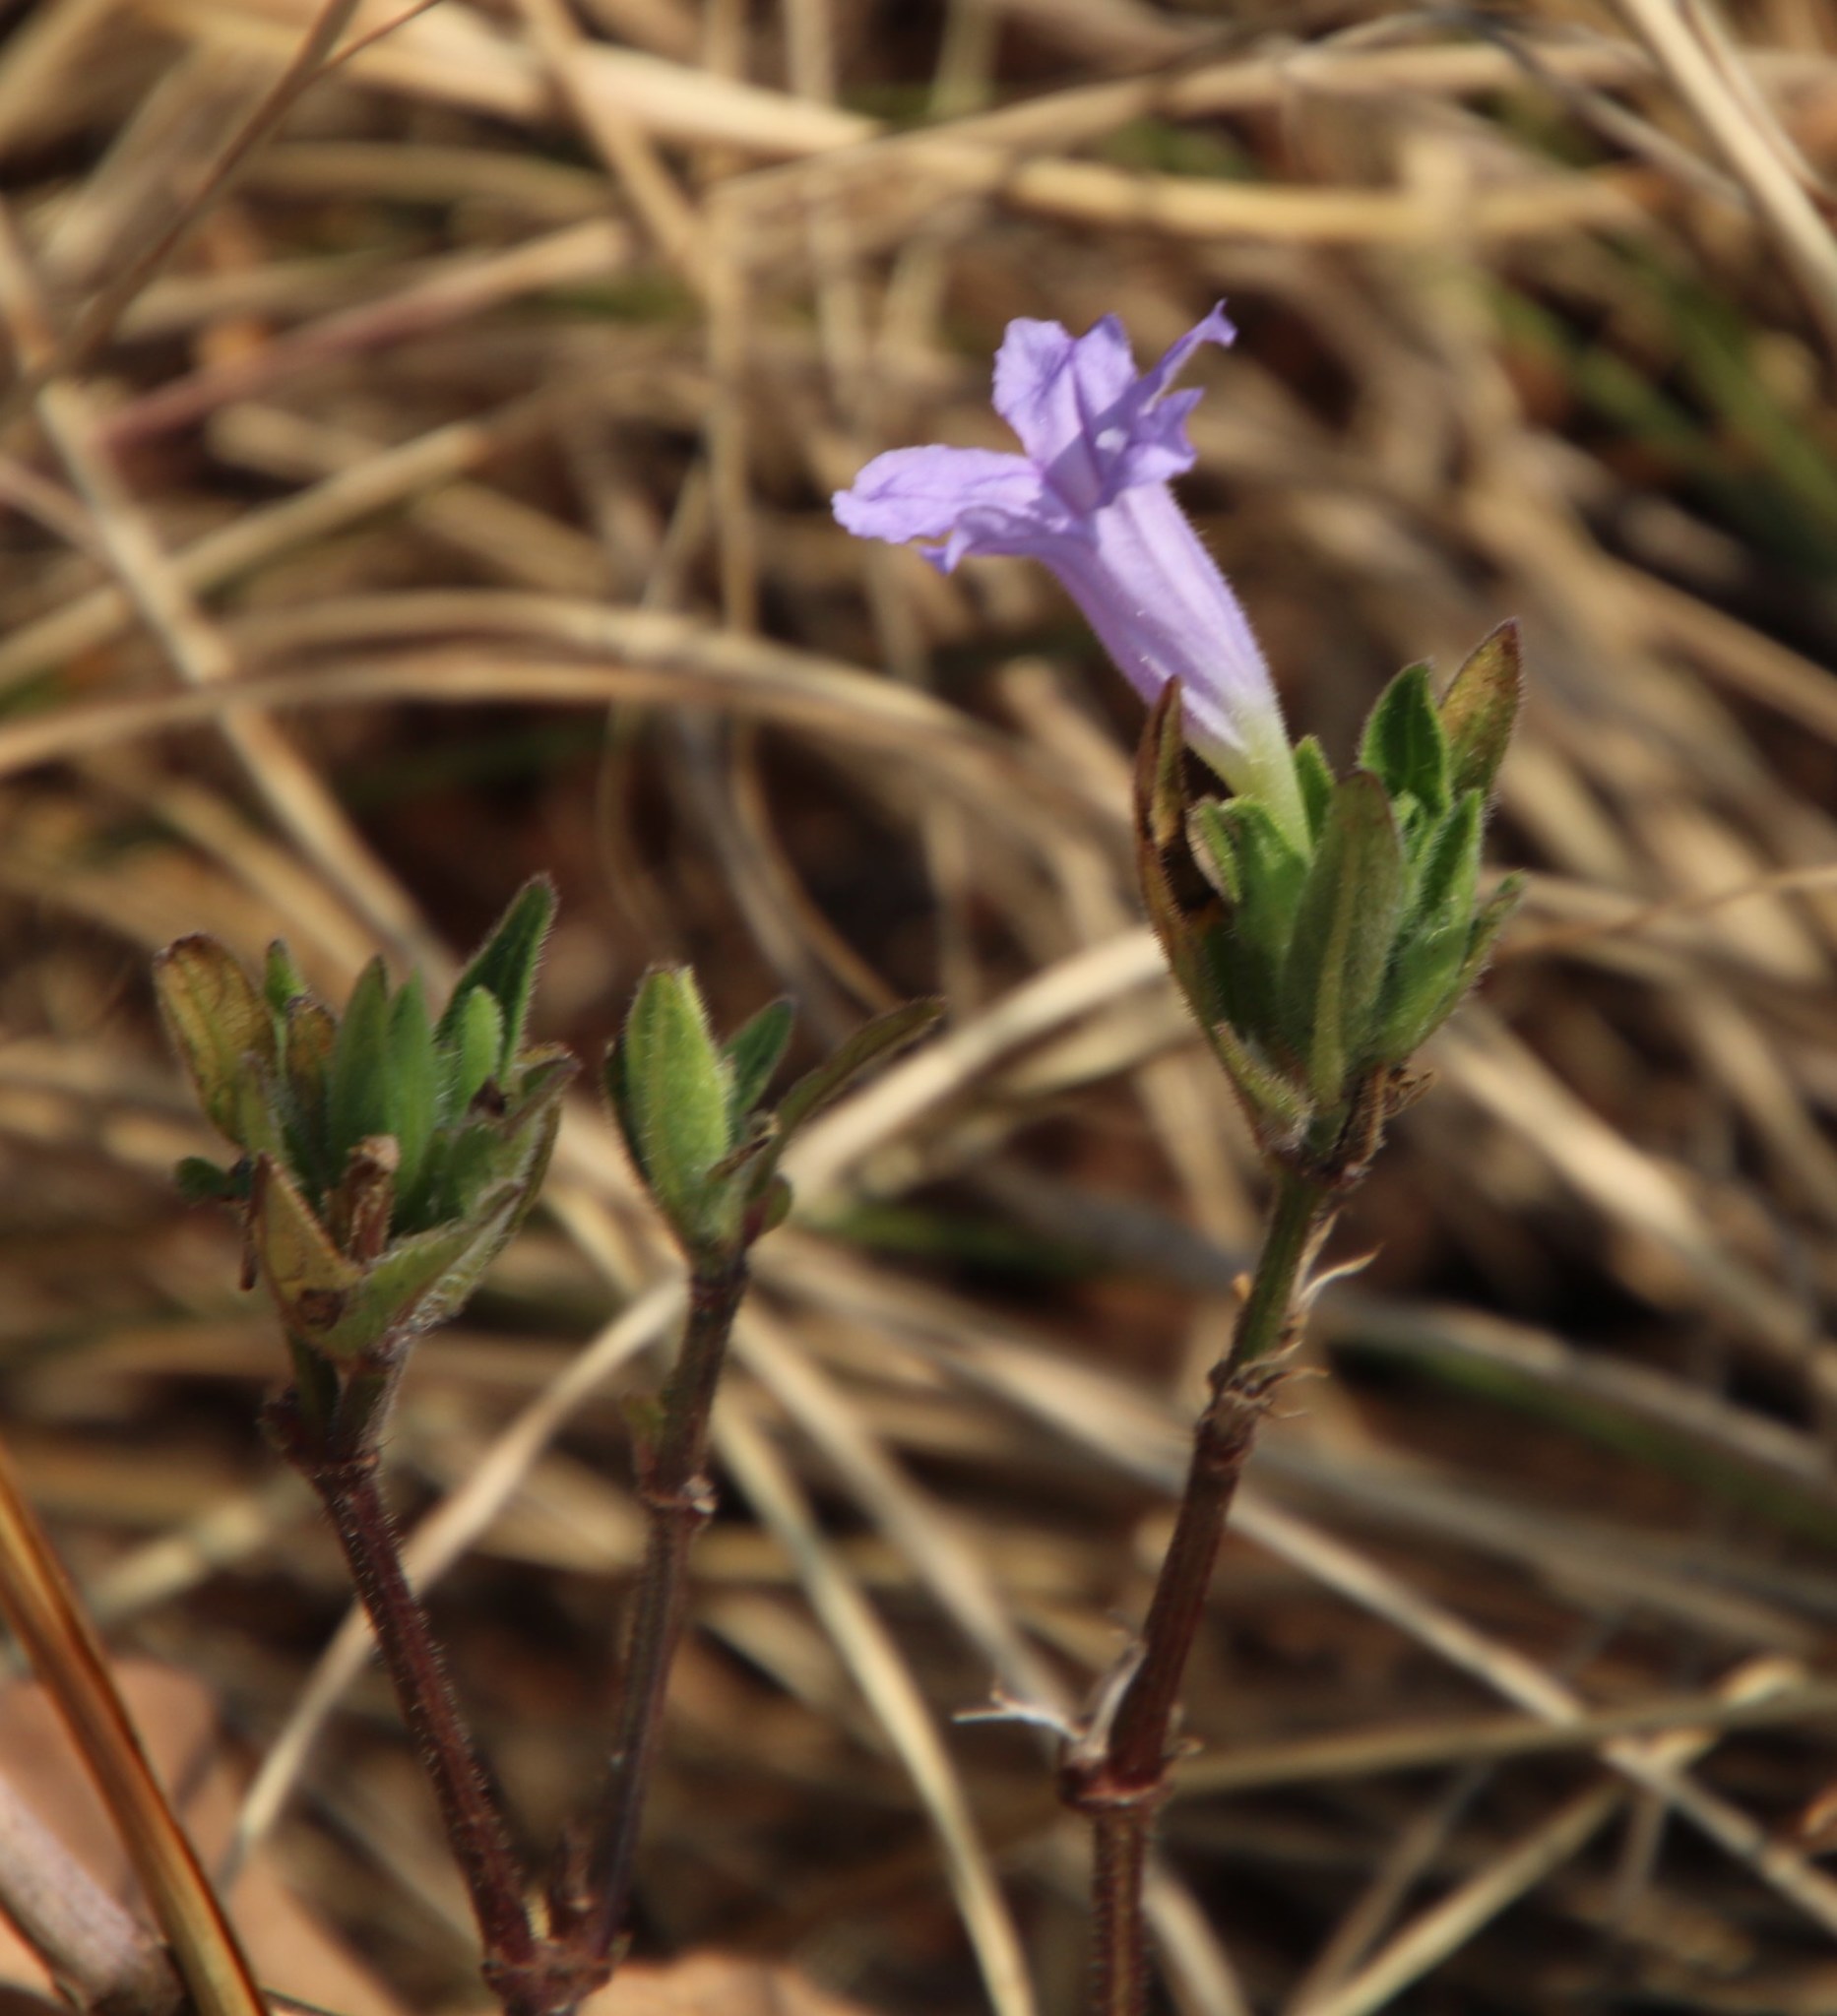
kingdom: Plantae
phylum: Tracheophyta
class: Magnoliopsida
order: Lamiales
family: Acanthaceae
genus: Ruellia
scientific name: Ruellia cordata
